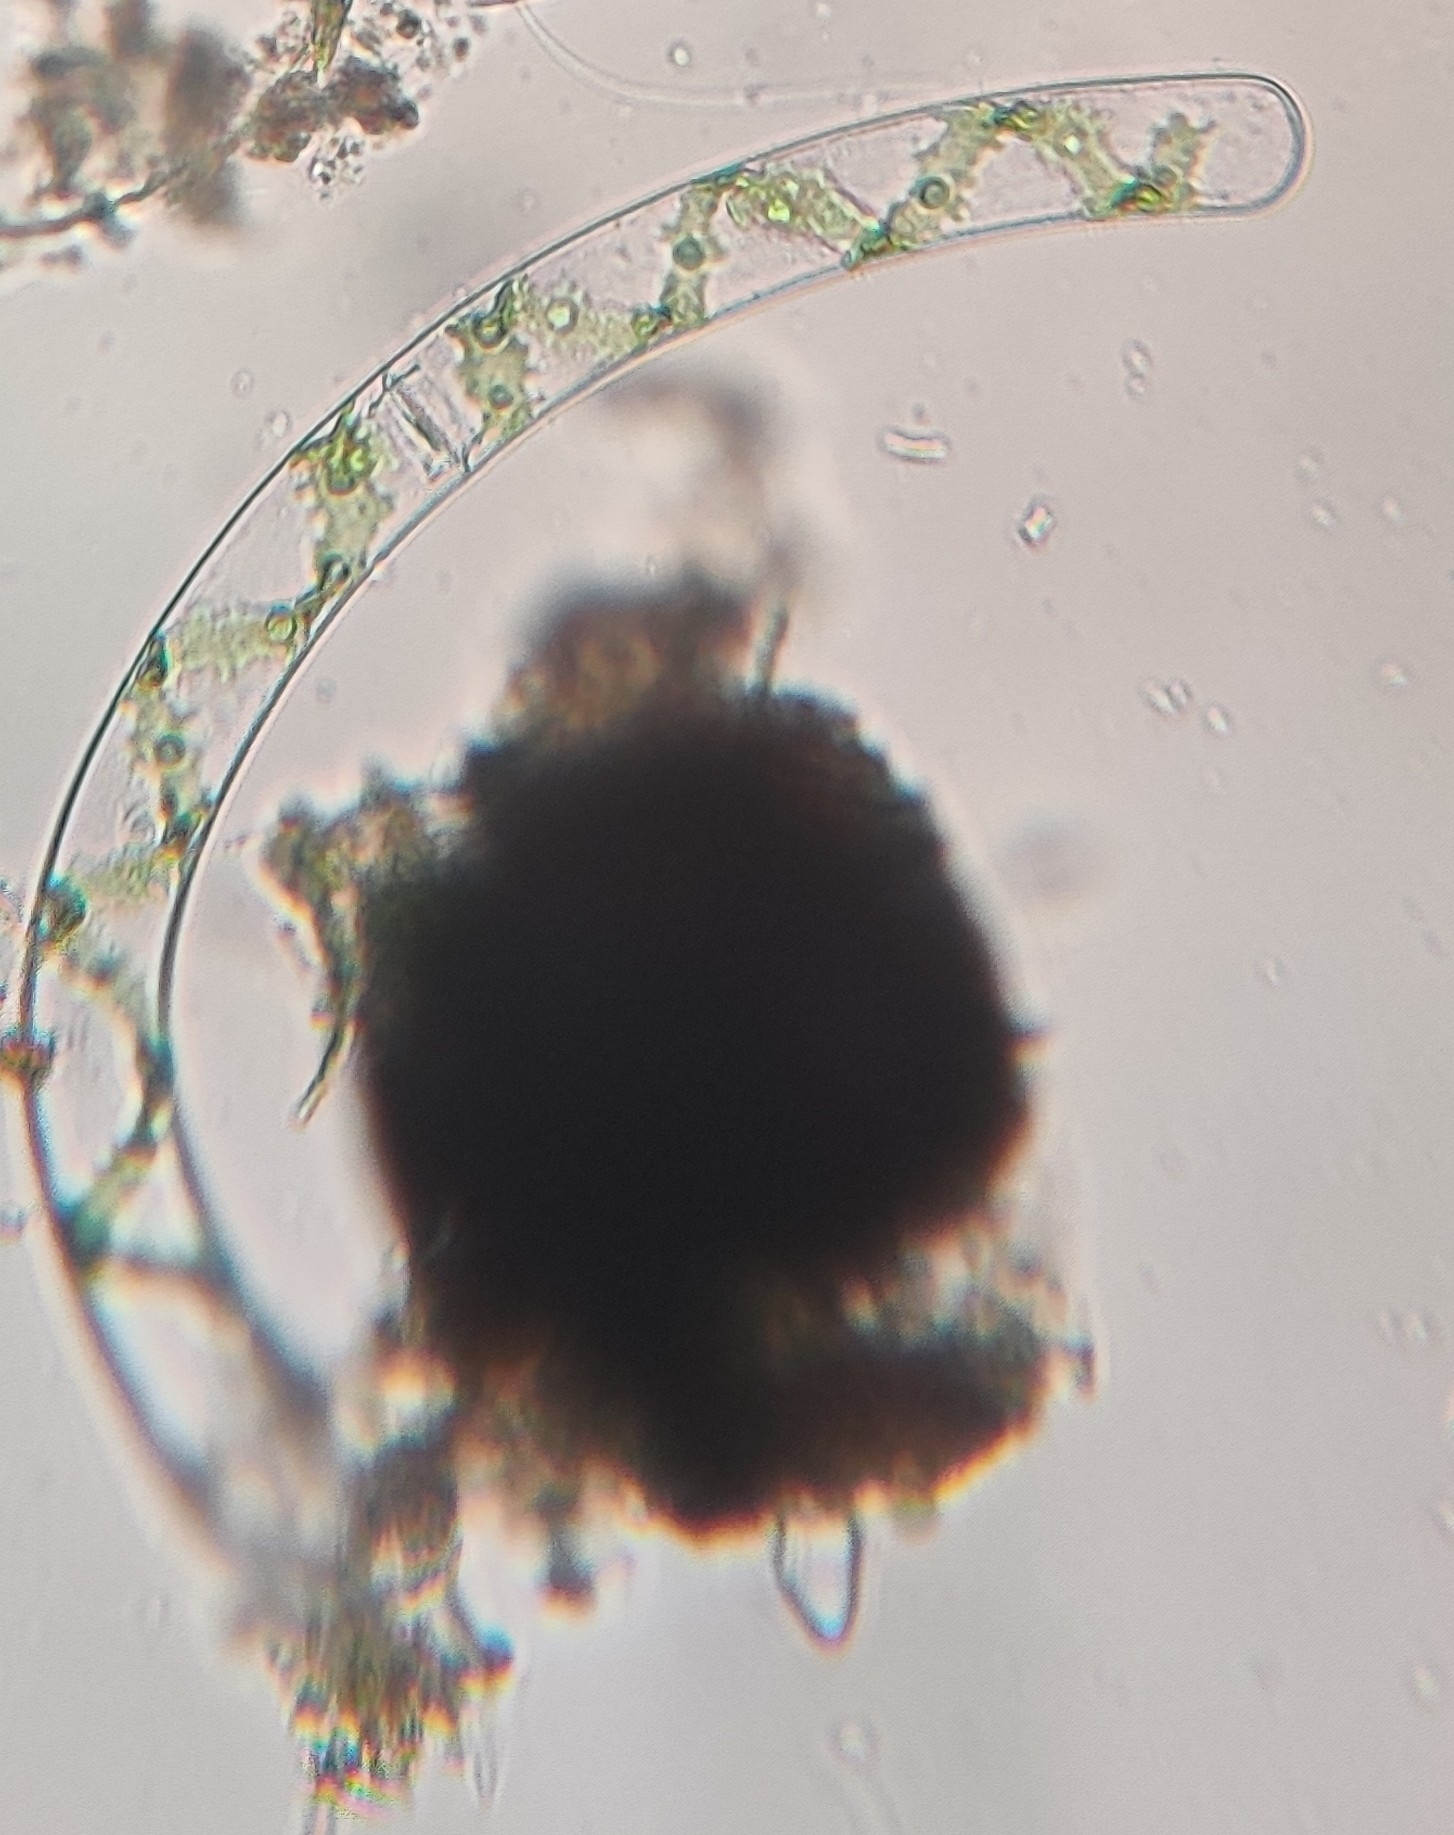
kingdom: Plantae
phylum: Charophyta
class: Zygnematophyceae
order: Zygnematales
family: Zygnemataceae
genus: Spirogyra
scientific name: Spirogyra
